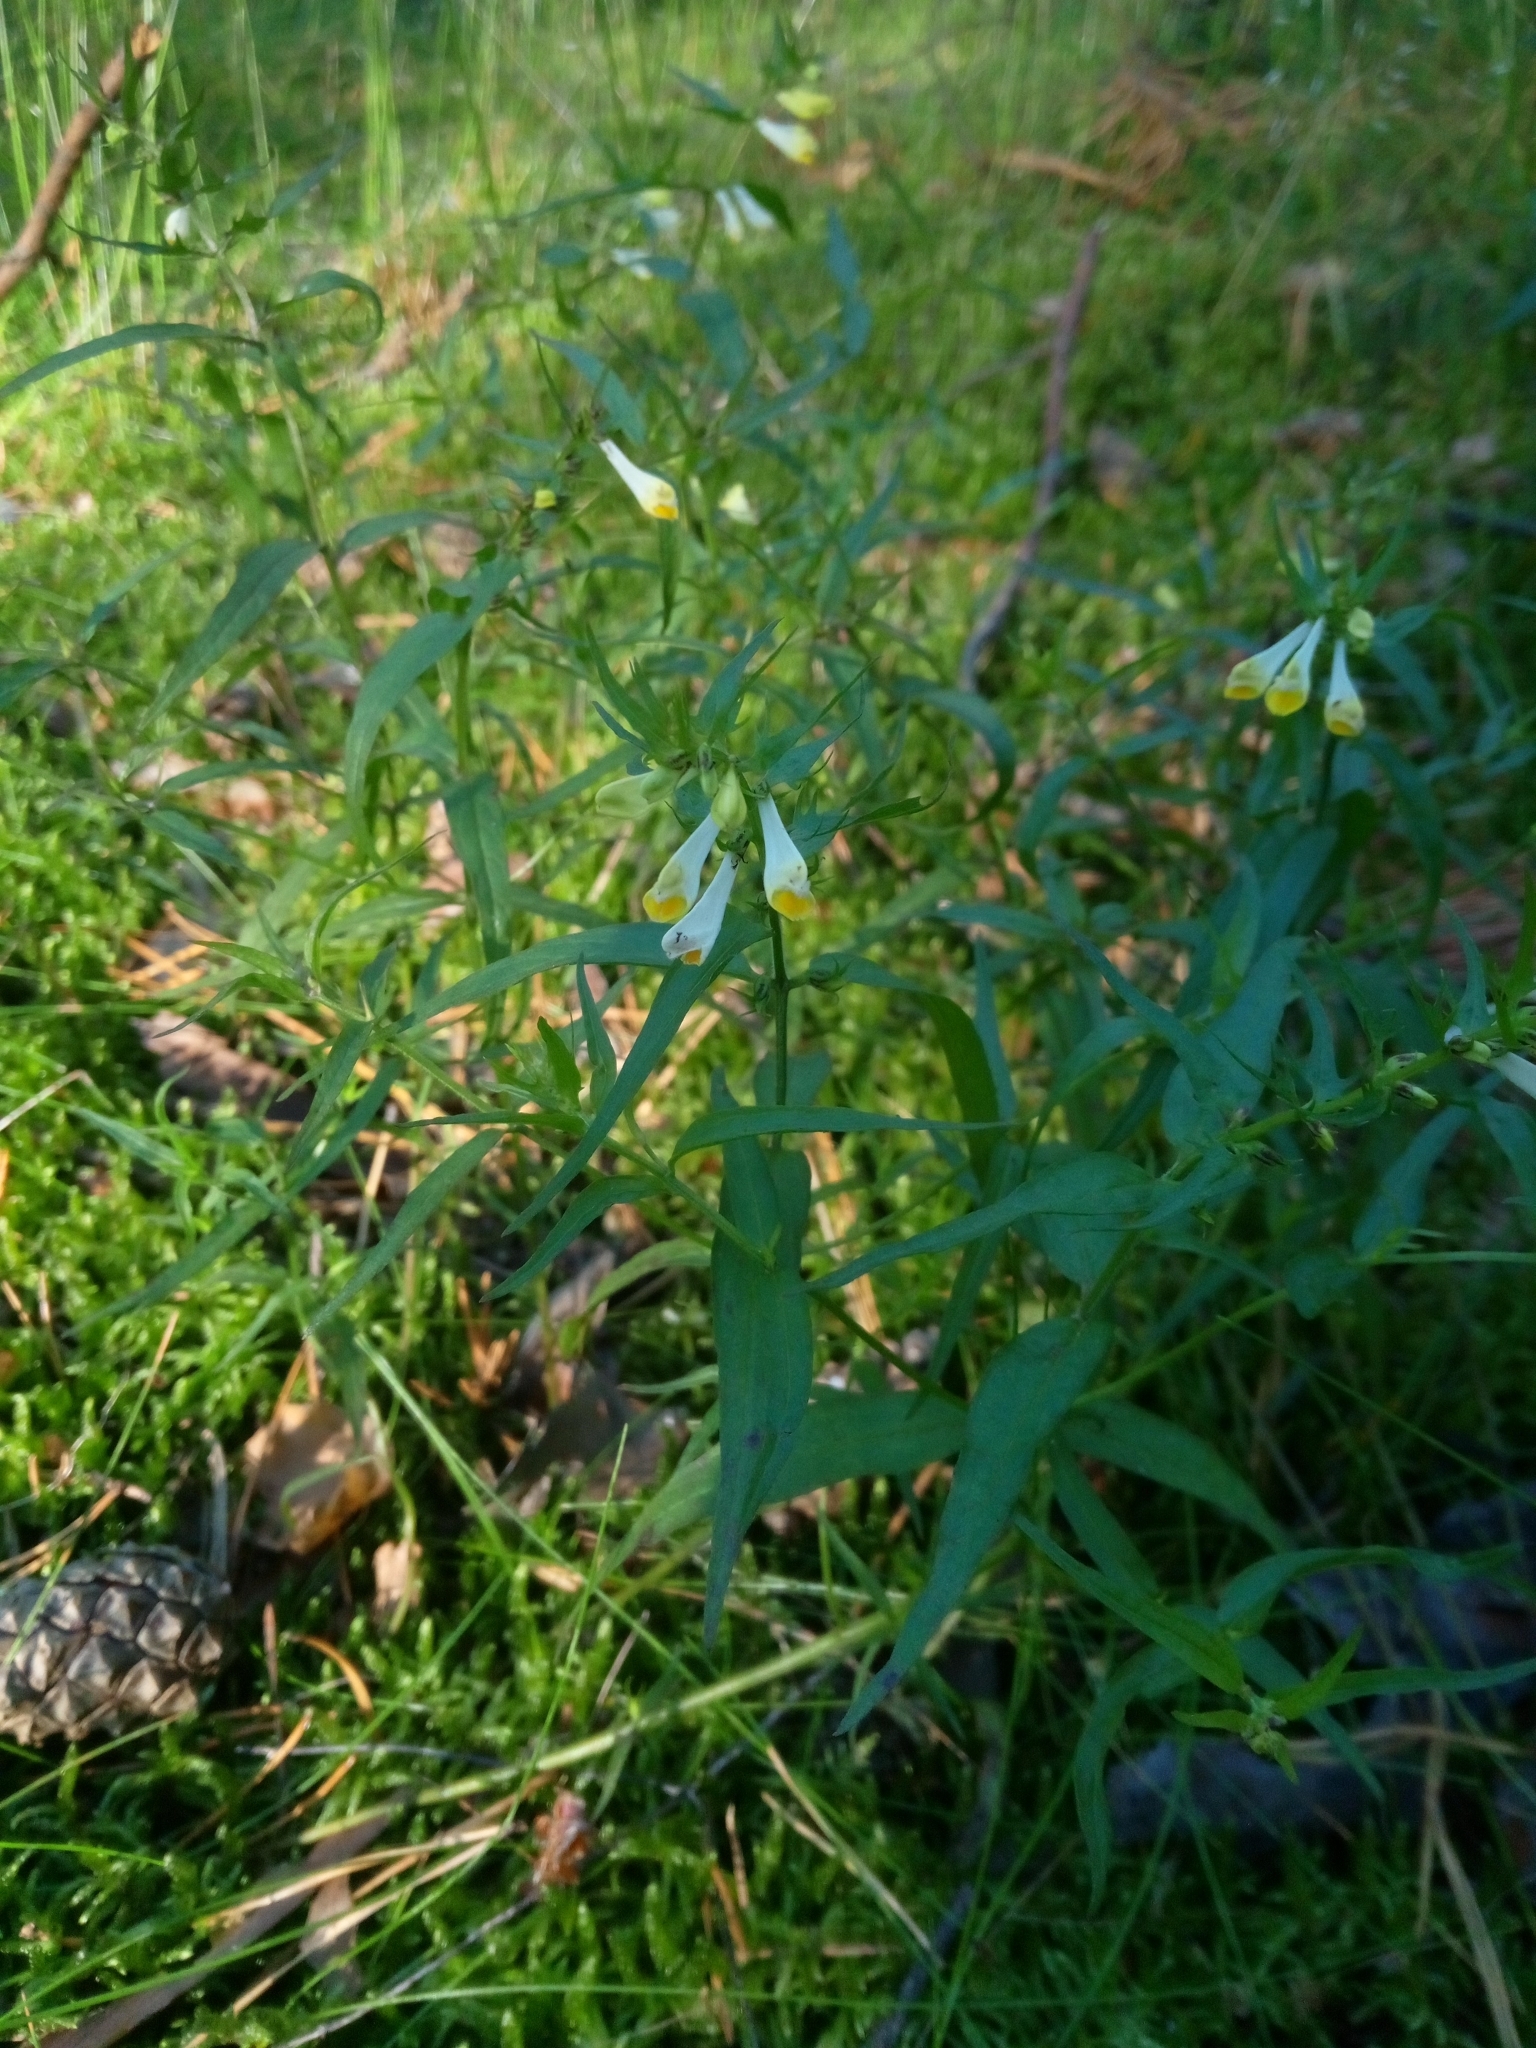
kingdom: Plantae
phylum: Tracheophyta
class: Magnoliopsida
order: Lamiales
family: Orobanchaceae
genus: Melampyrum
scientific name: Melampyrum pratense
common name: Common cow-wheat
